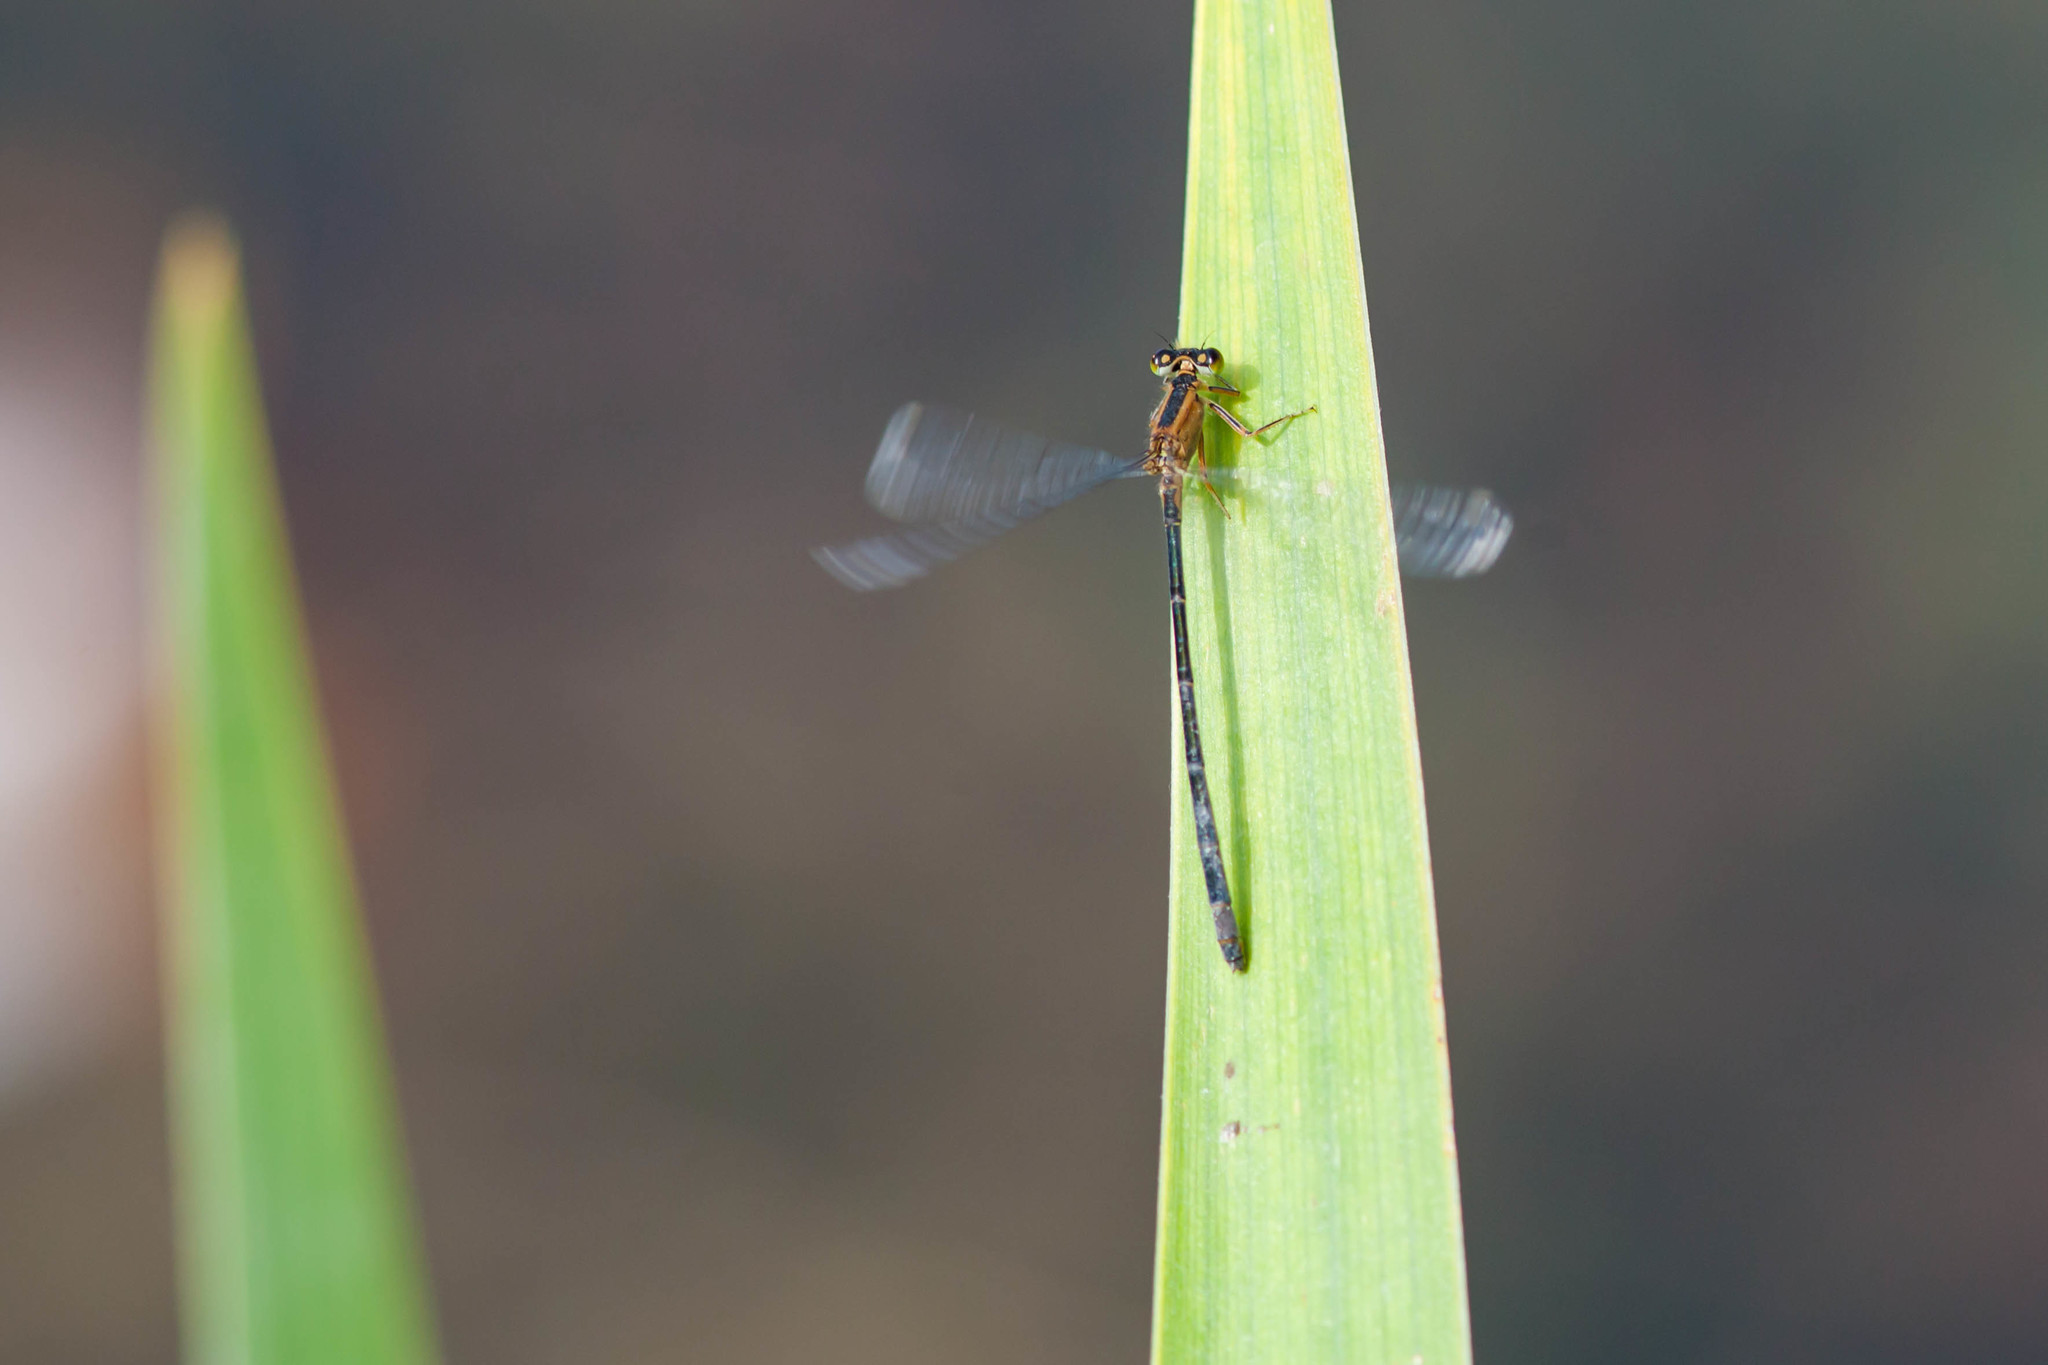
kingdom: Animalia
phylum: Arthropoda
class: Insecta
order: Odonata
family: Coenagrionidae
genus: Ischnura
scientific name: Ischnura elegans
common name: Blue-tailed damselfly
